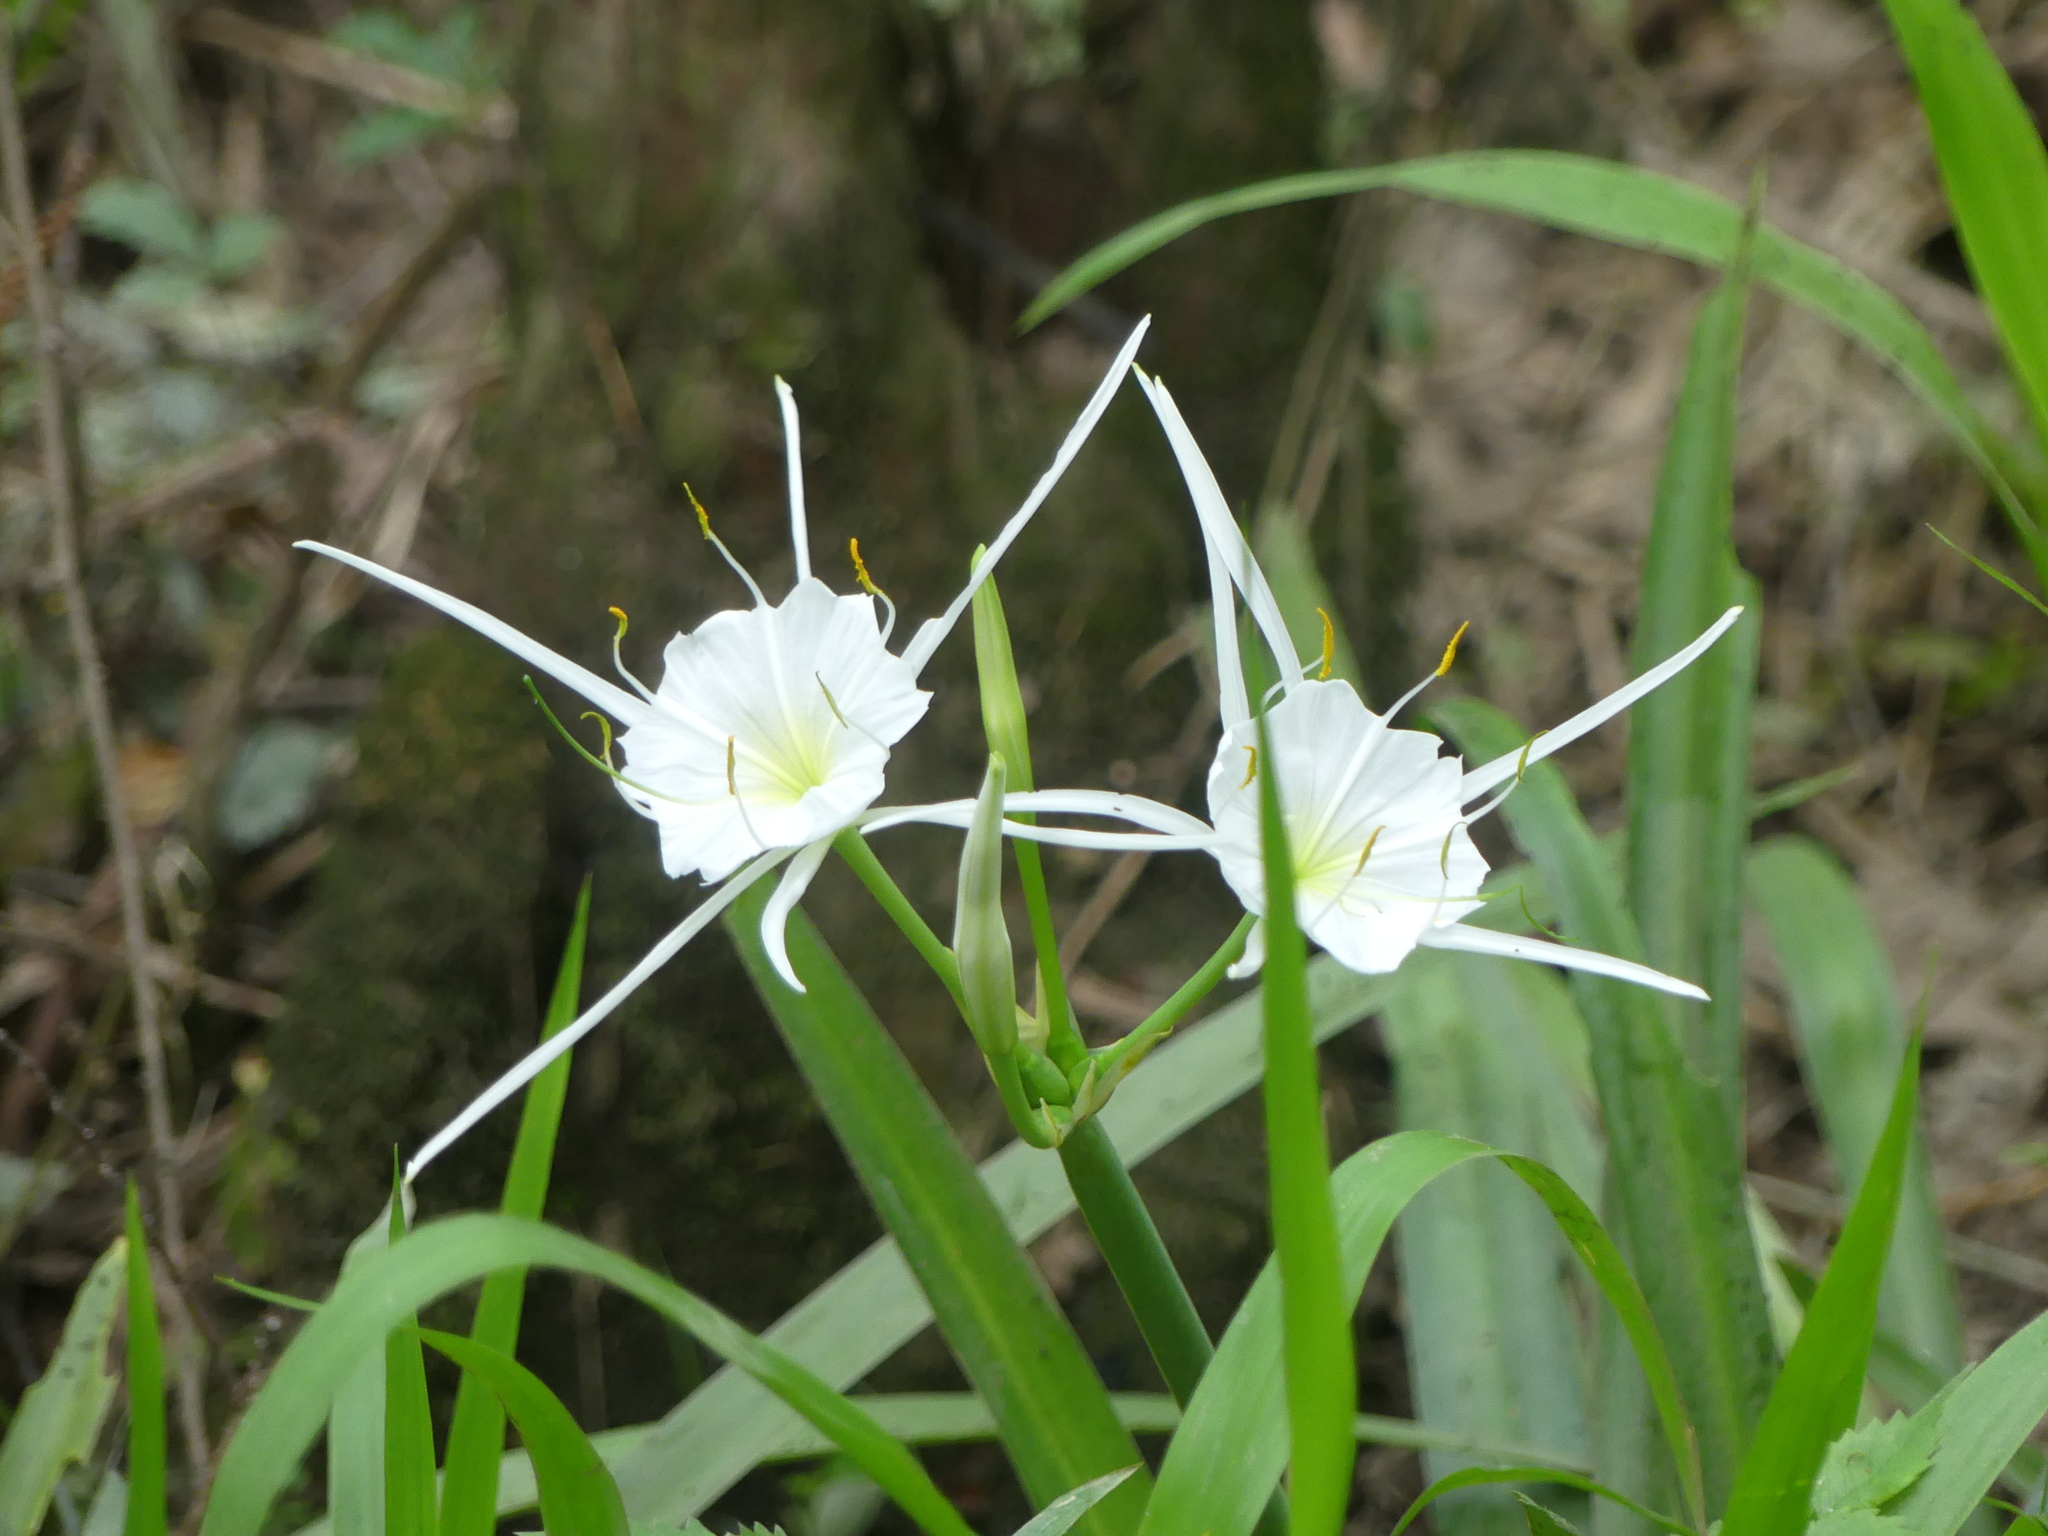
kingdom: Plantae
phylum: Tracheophyta
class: Liliopsida
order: Asparagales
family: Amaryllidaceae
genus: Hymenocallis
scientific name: Hymenocallis liriosme
